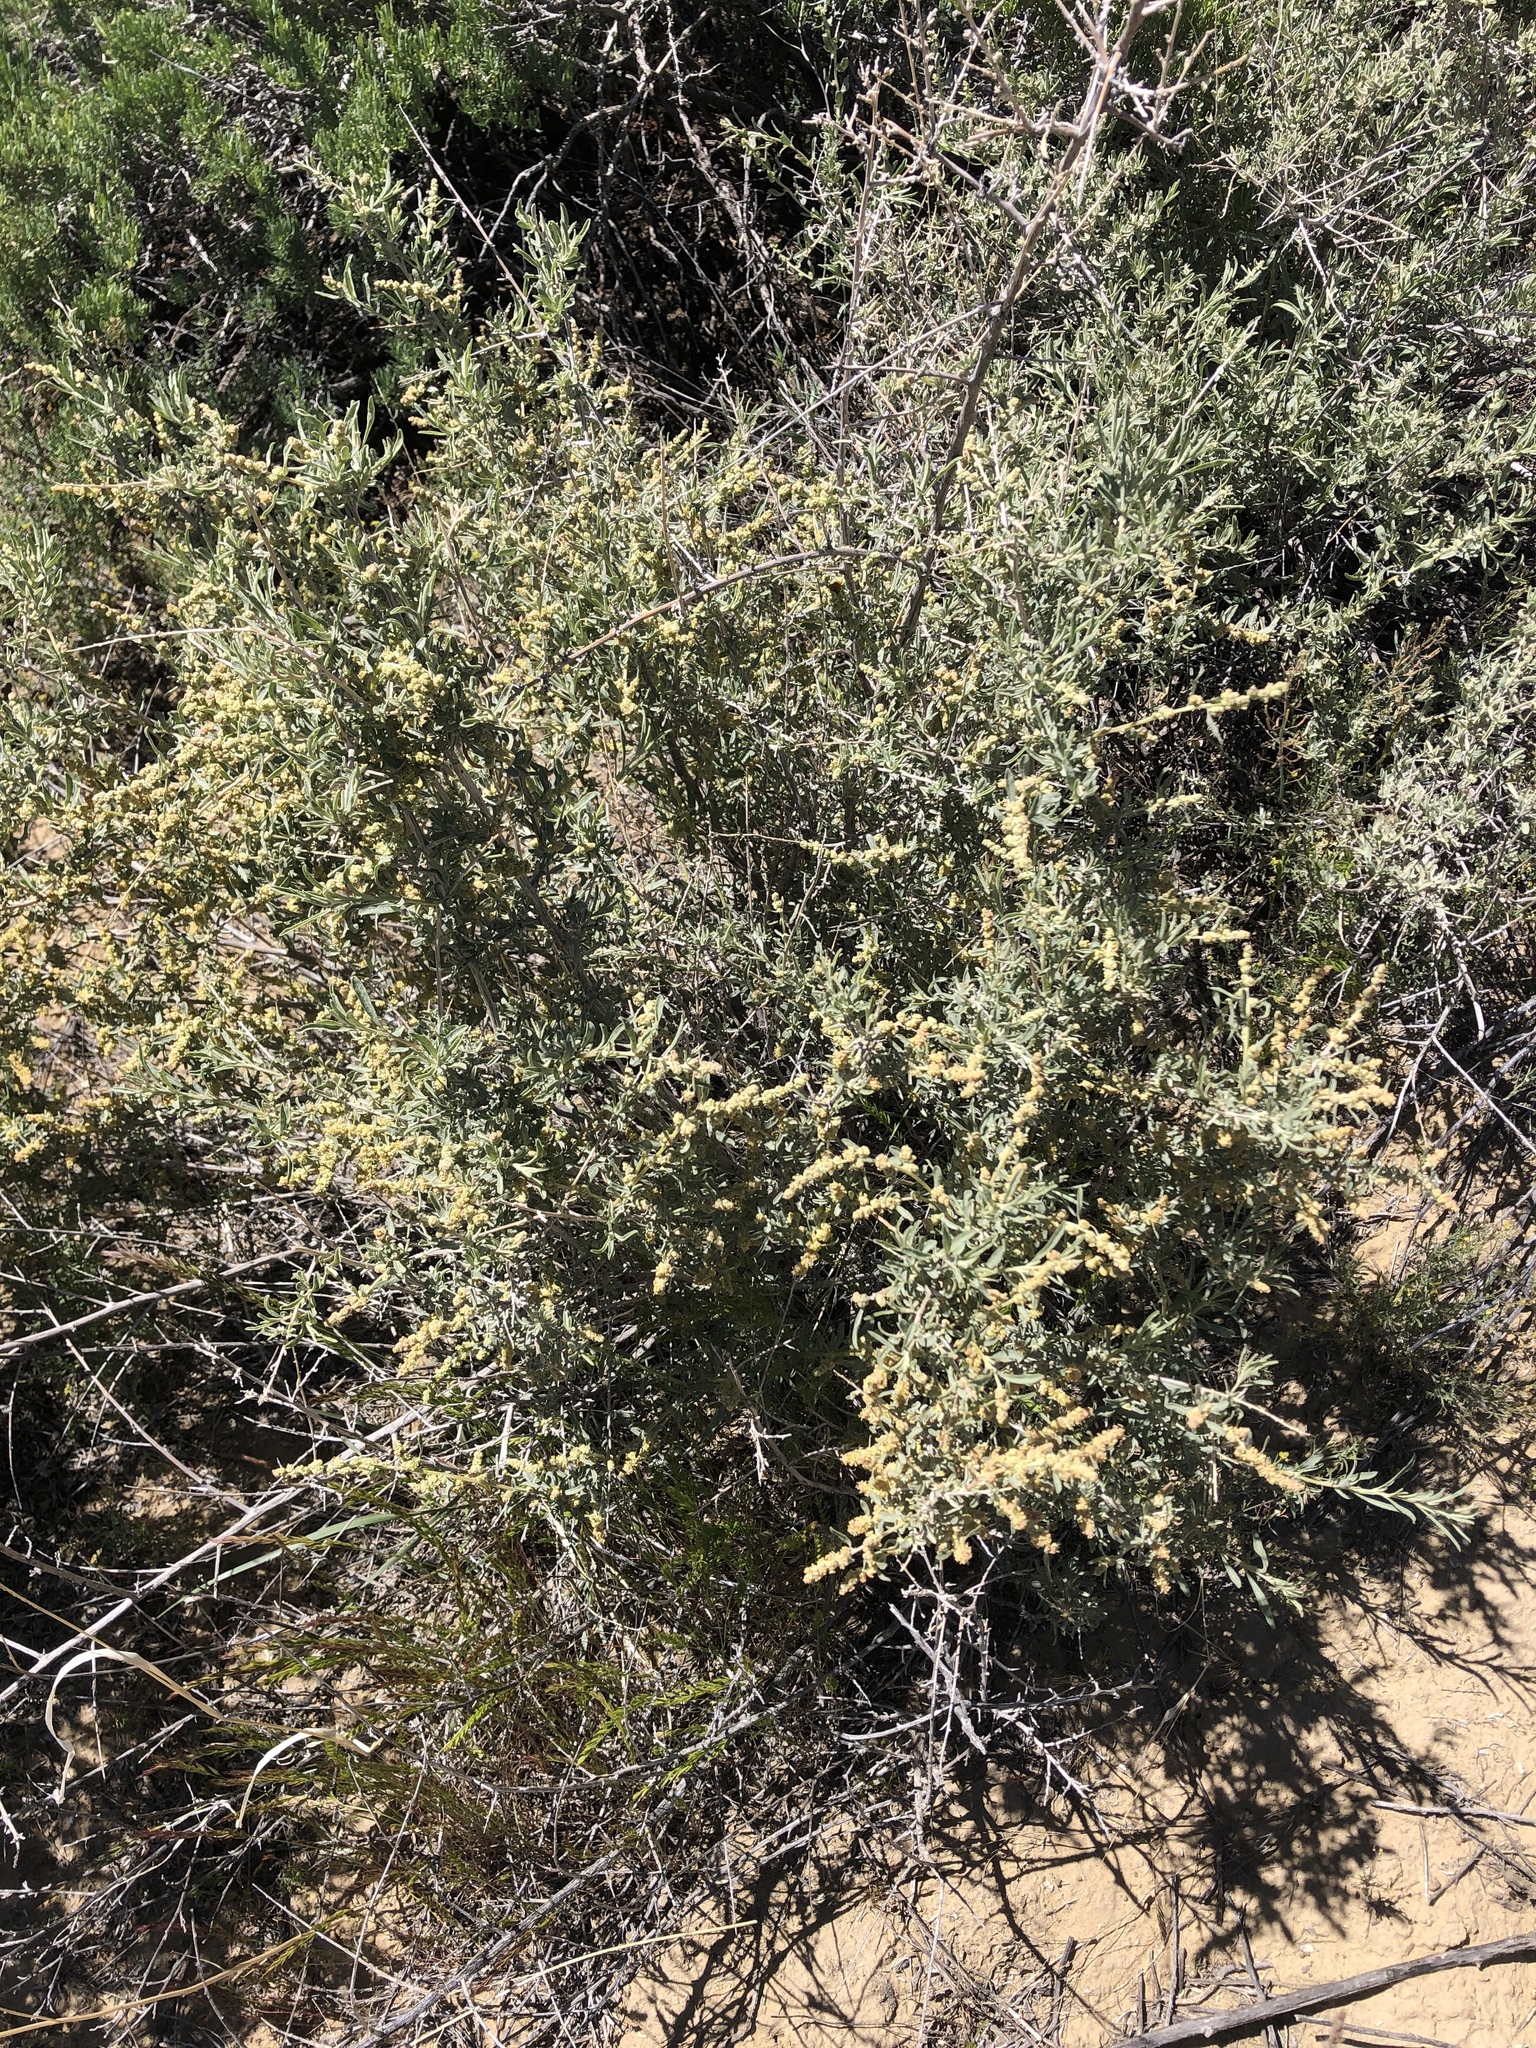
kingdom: Plantae
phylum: Tracheophyta
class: Magnoliopsida
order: Caryophyllales
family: Amaranthaceae
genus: Atriplex
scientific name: Atriplex canescens
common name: Four-wing saltbush
